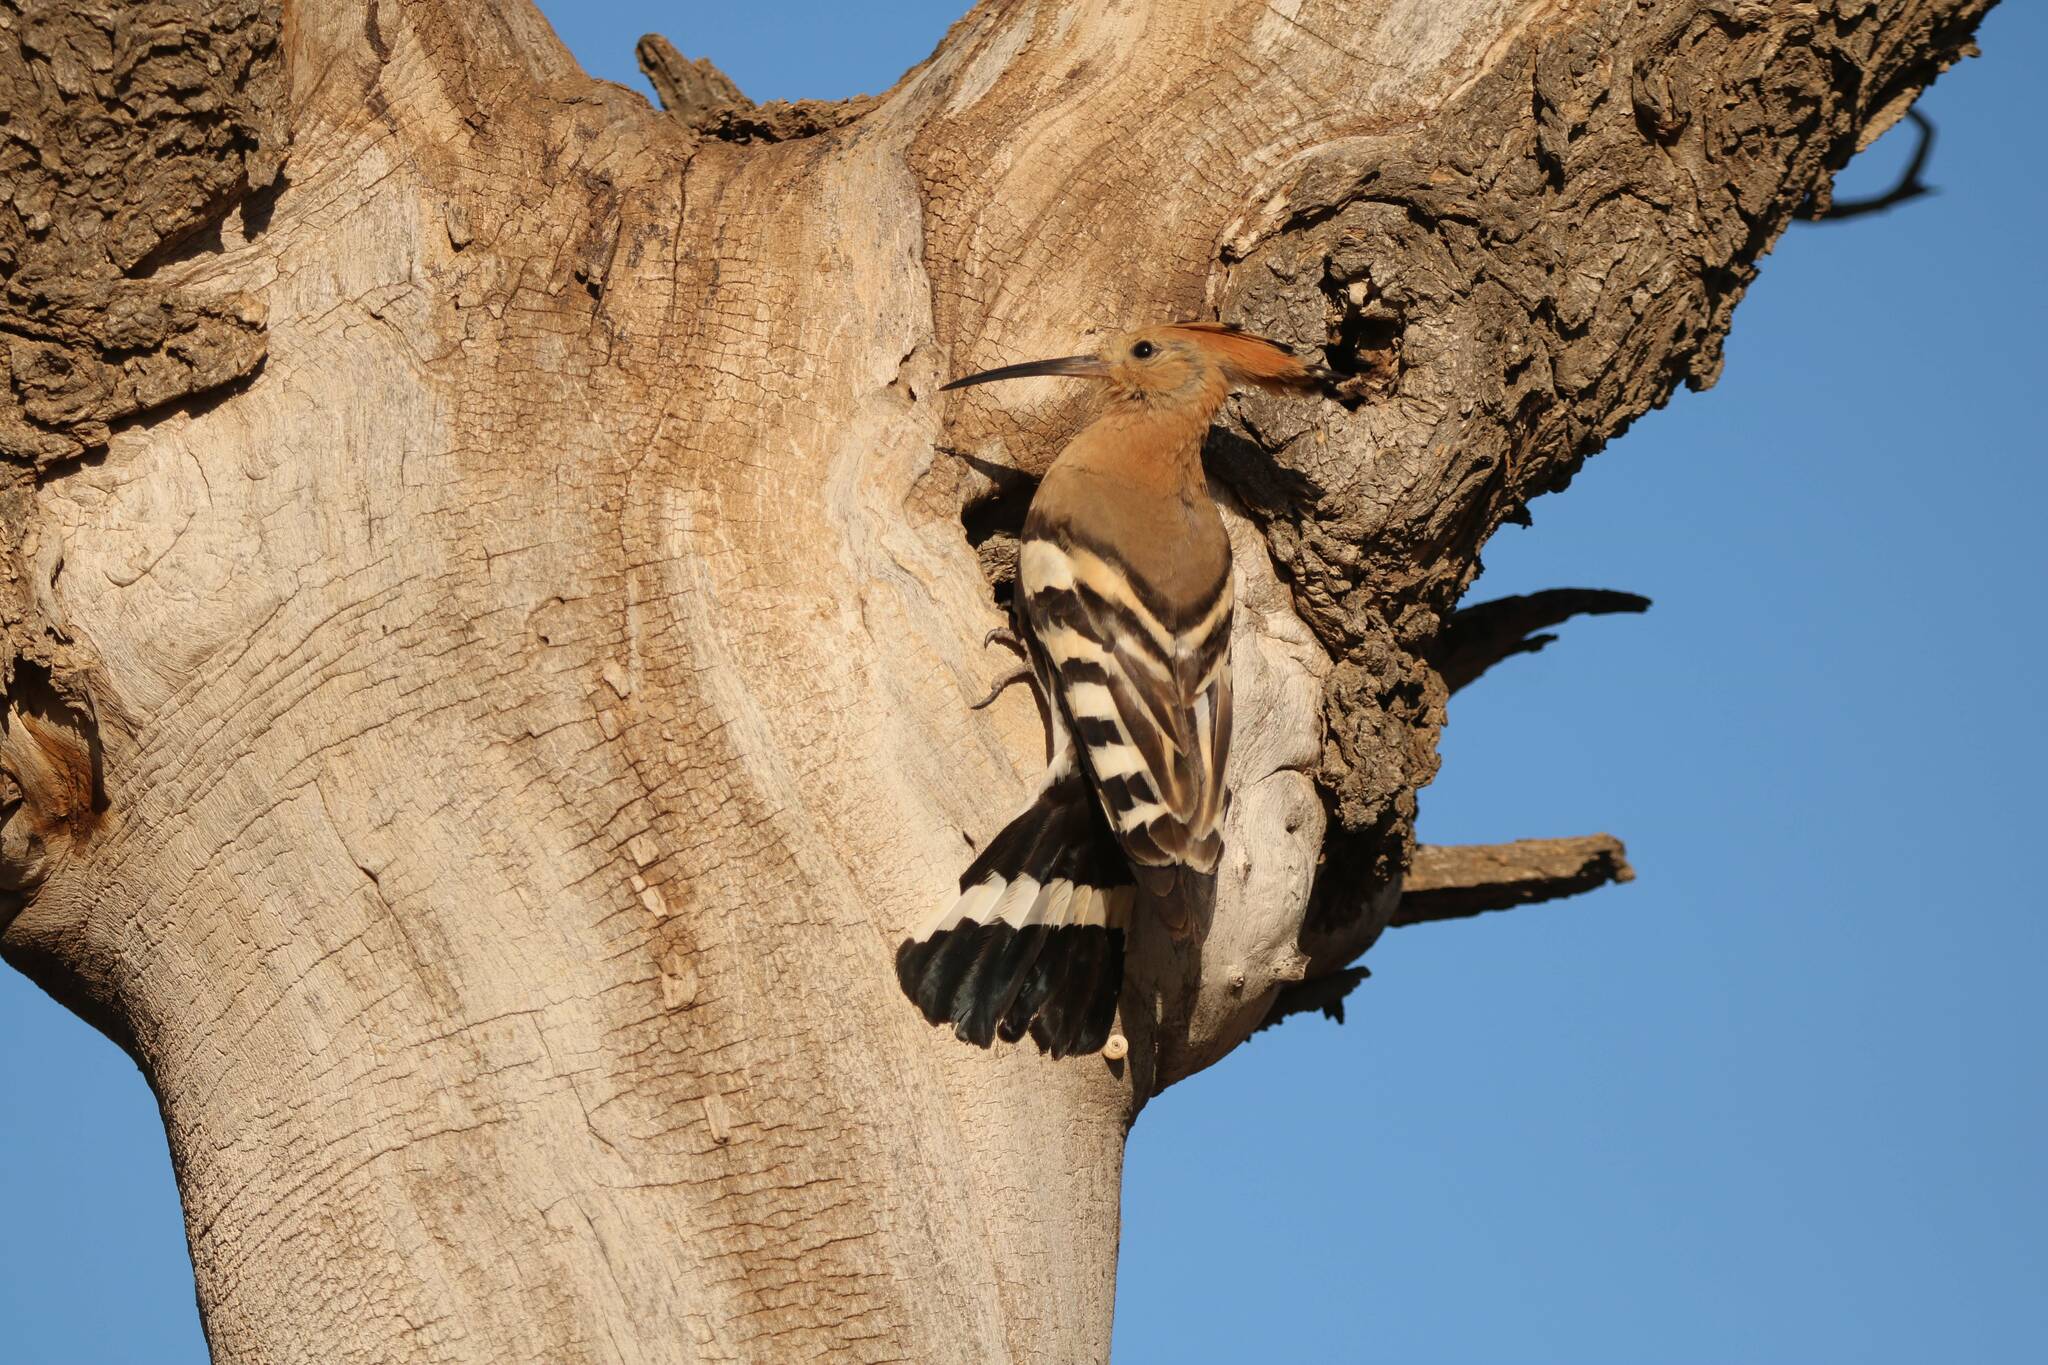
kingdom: Animalia
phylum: Chordata
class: Aves
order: Bucerotiformes
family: Upupidae
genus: Upupa
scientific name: Upupa epops
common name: Eurasian hoopoe
